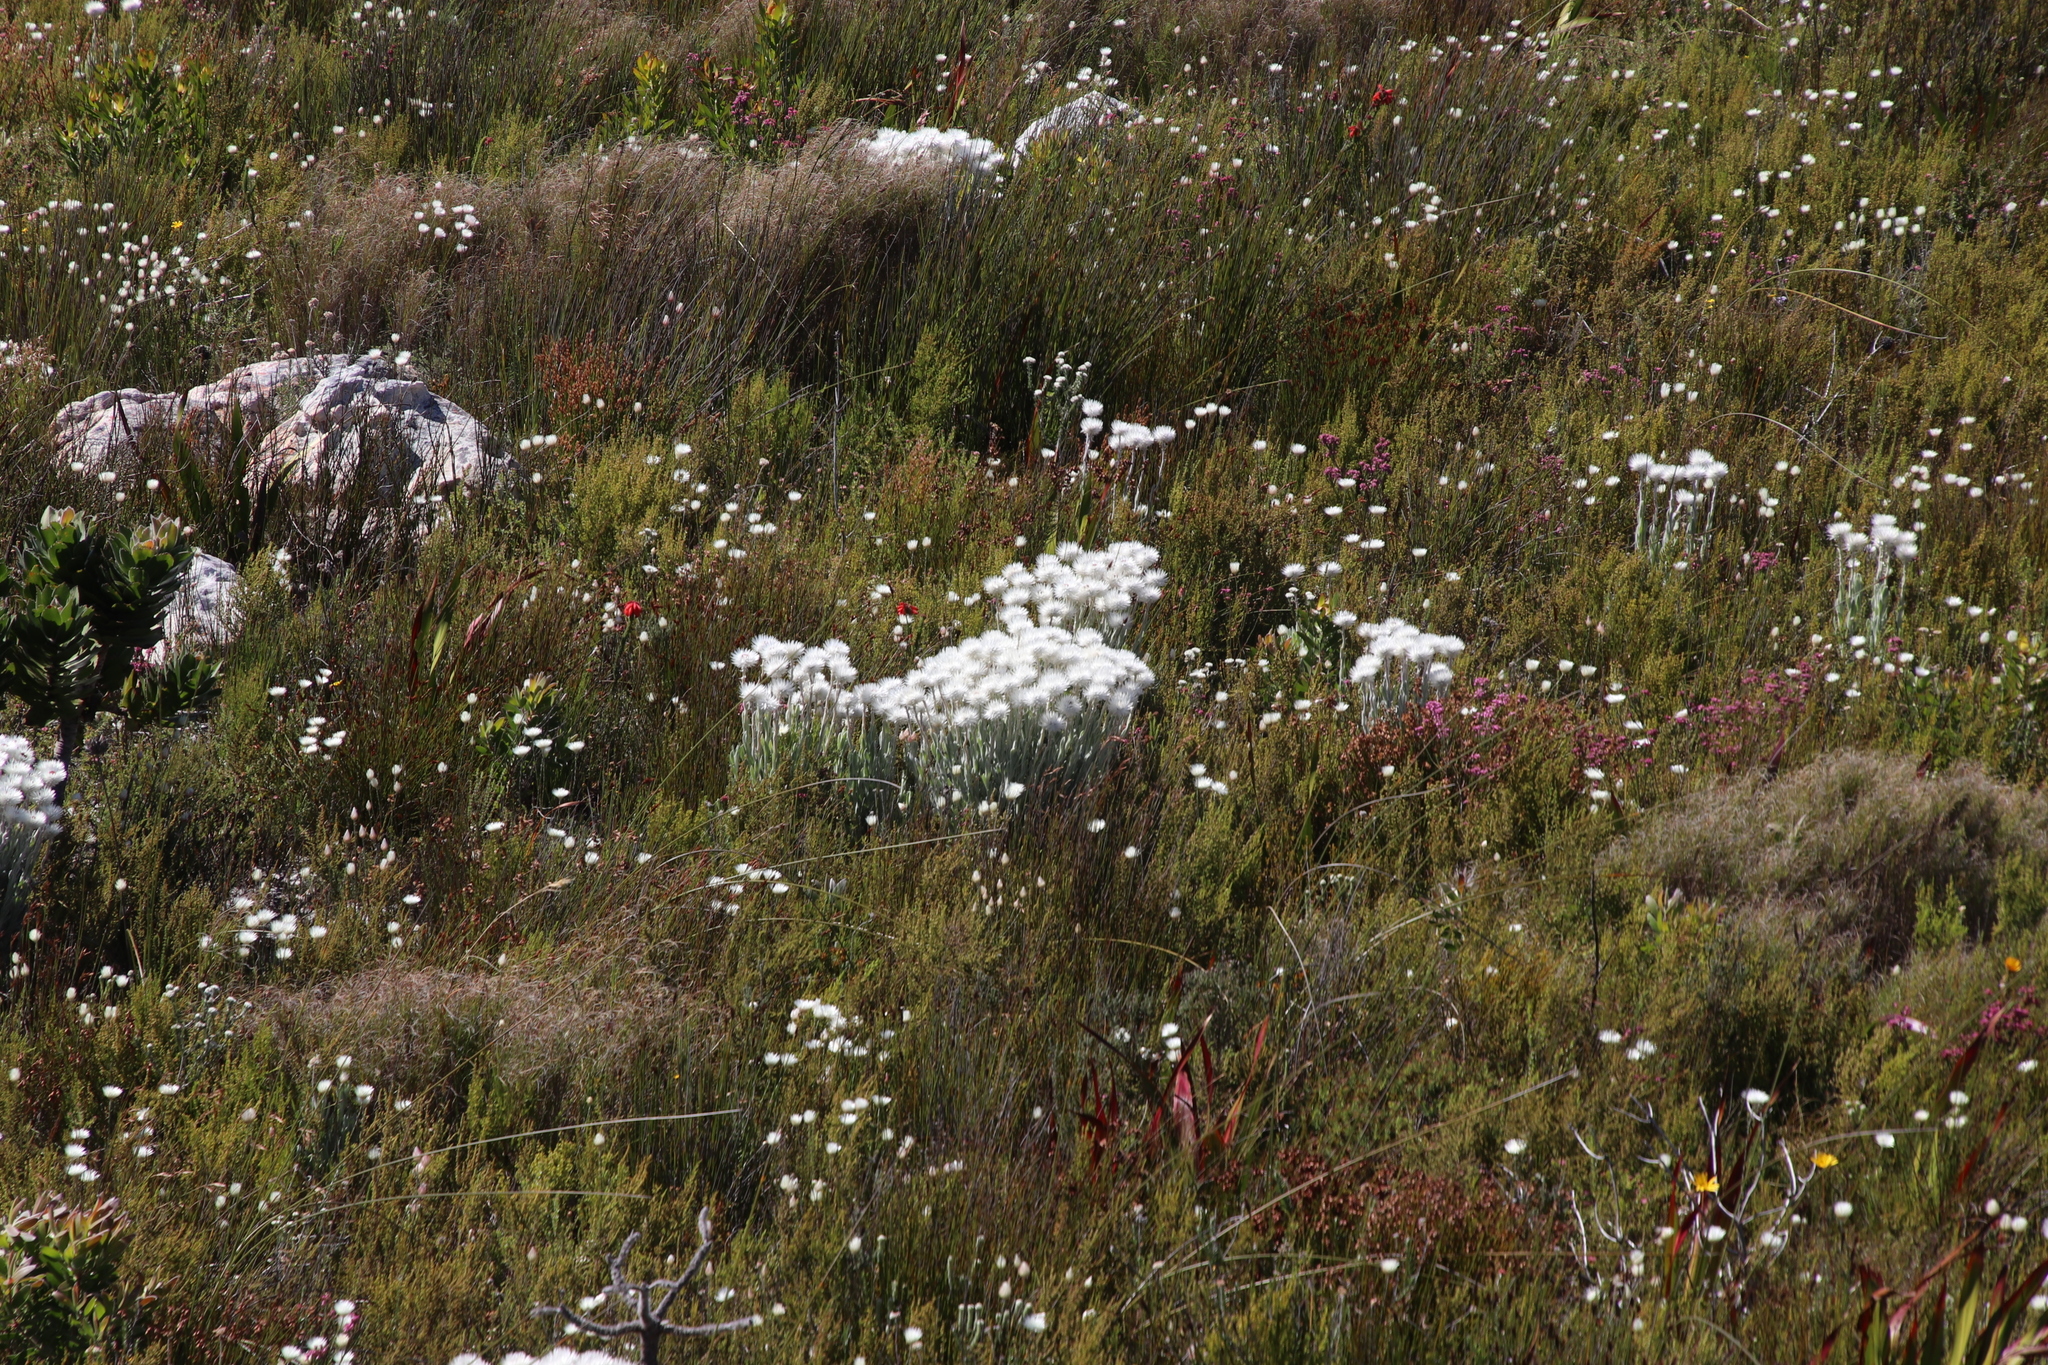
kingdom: Plantae
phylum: Tracheophyta
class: Magnoliopsida
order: Asterales
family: Asteraceae
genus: Syncarpha
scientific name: Syncarpha vestita
